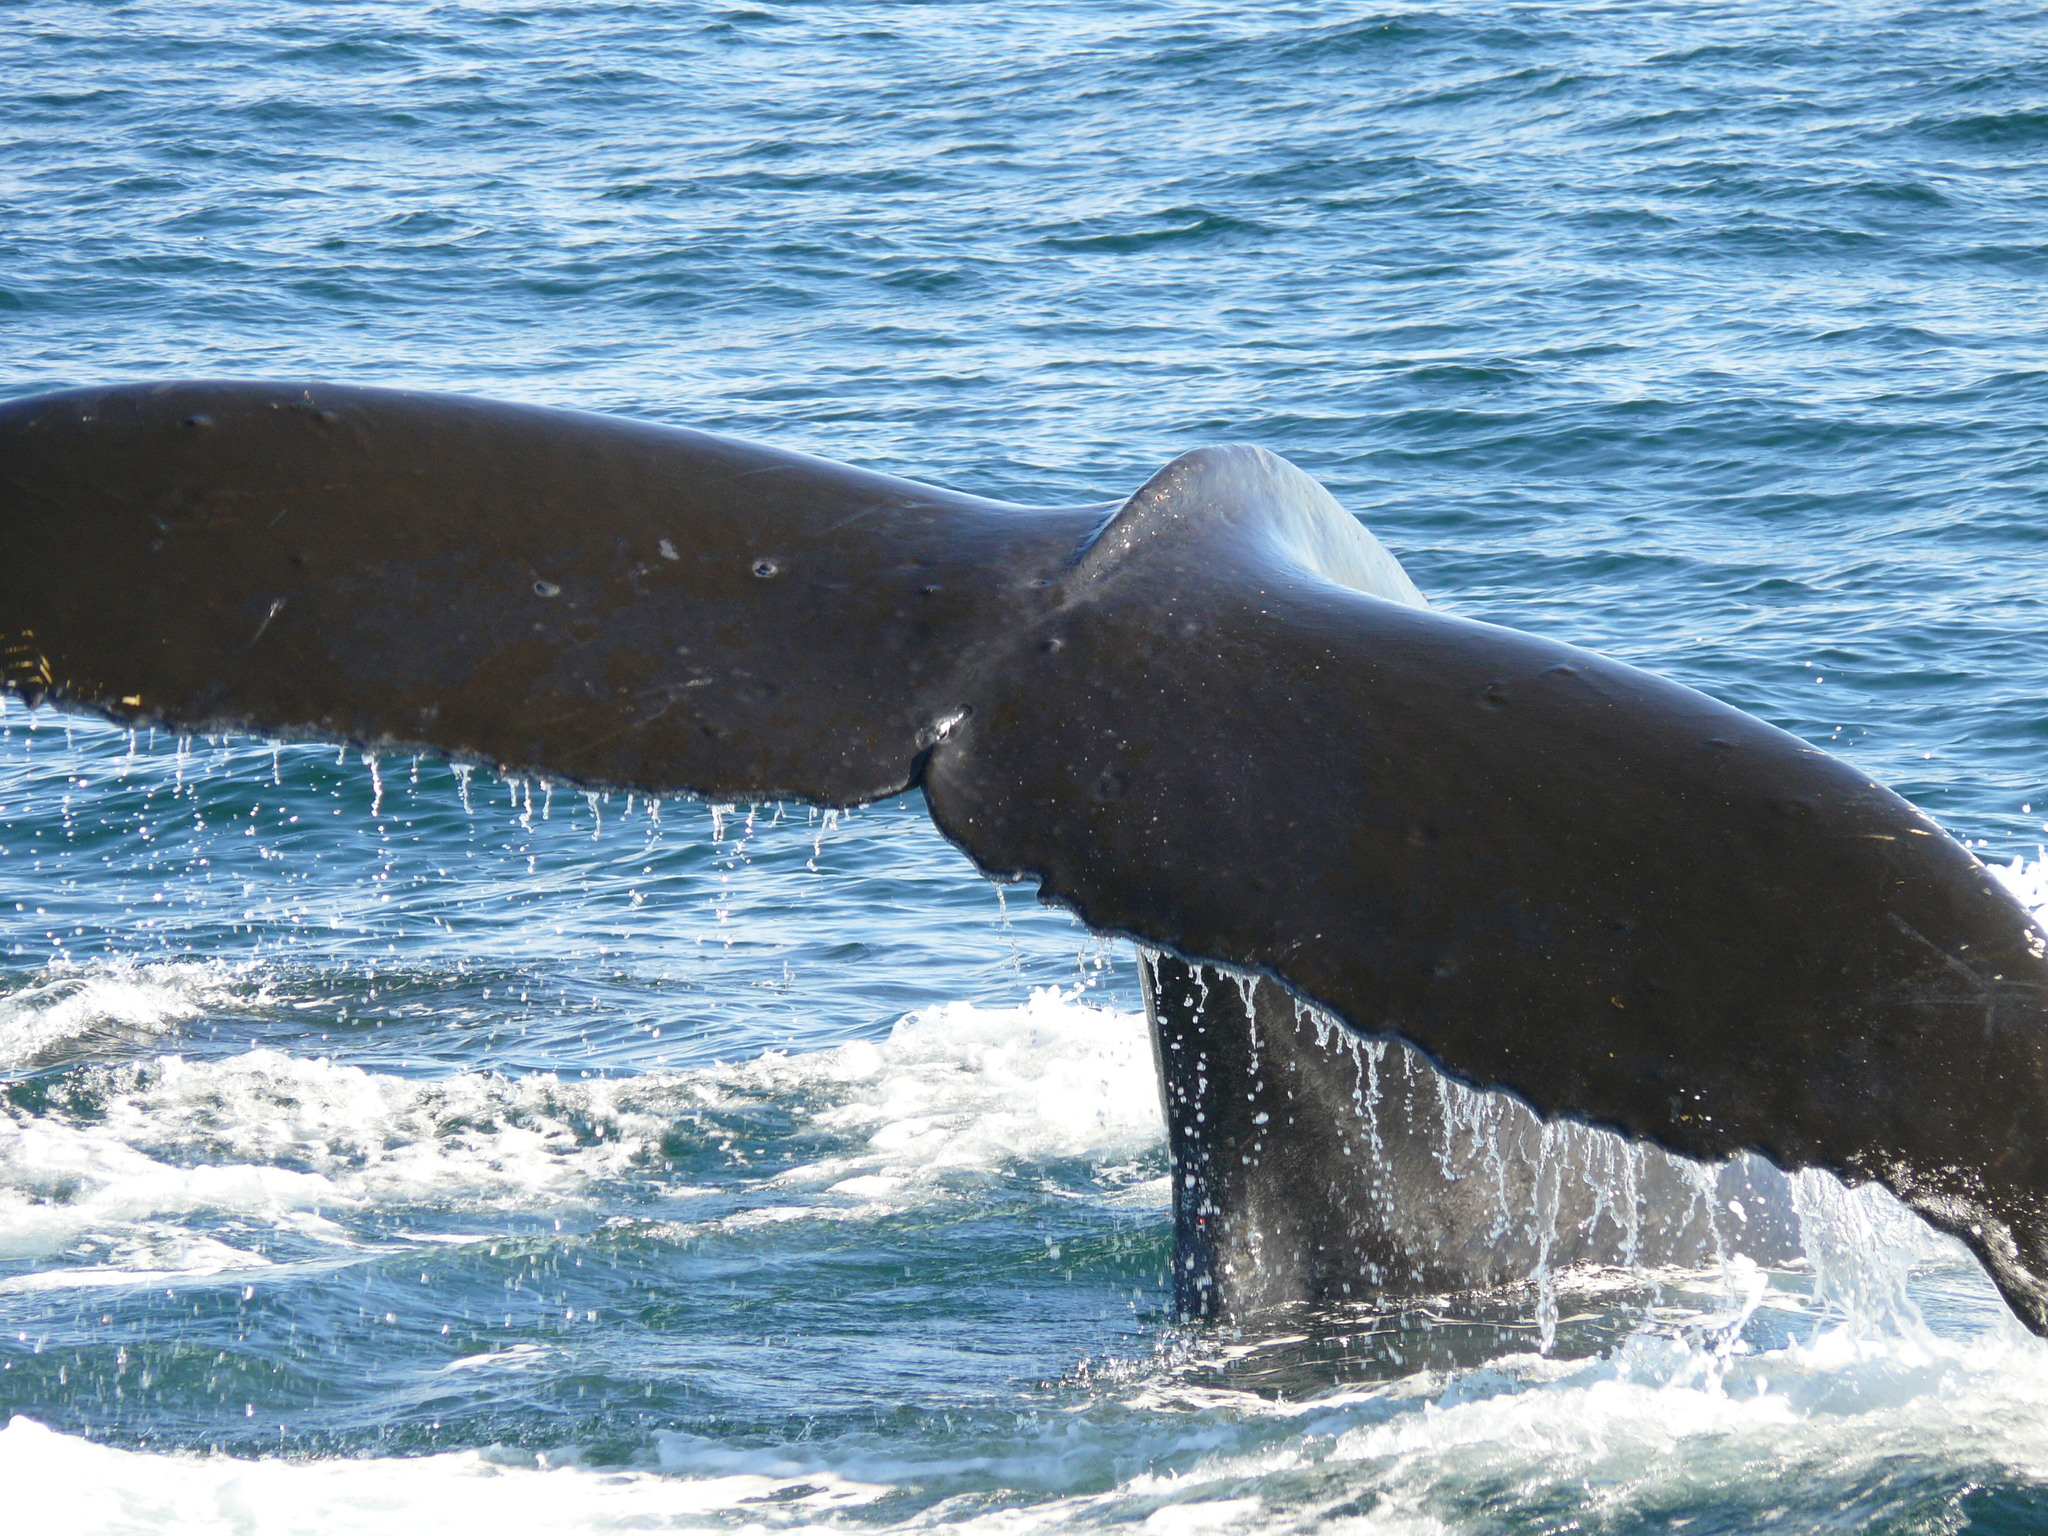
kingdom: Animalia
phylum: Chordata
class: Mammalia
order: Cetacea
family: Balaenopteridae
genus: Megaptera
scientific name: Megaptera novaeangliae
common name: Humpback whale
